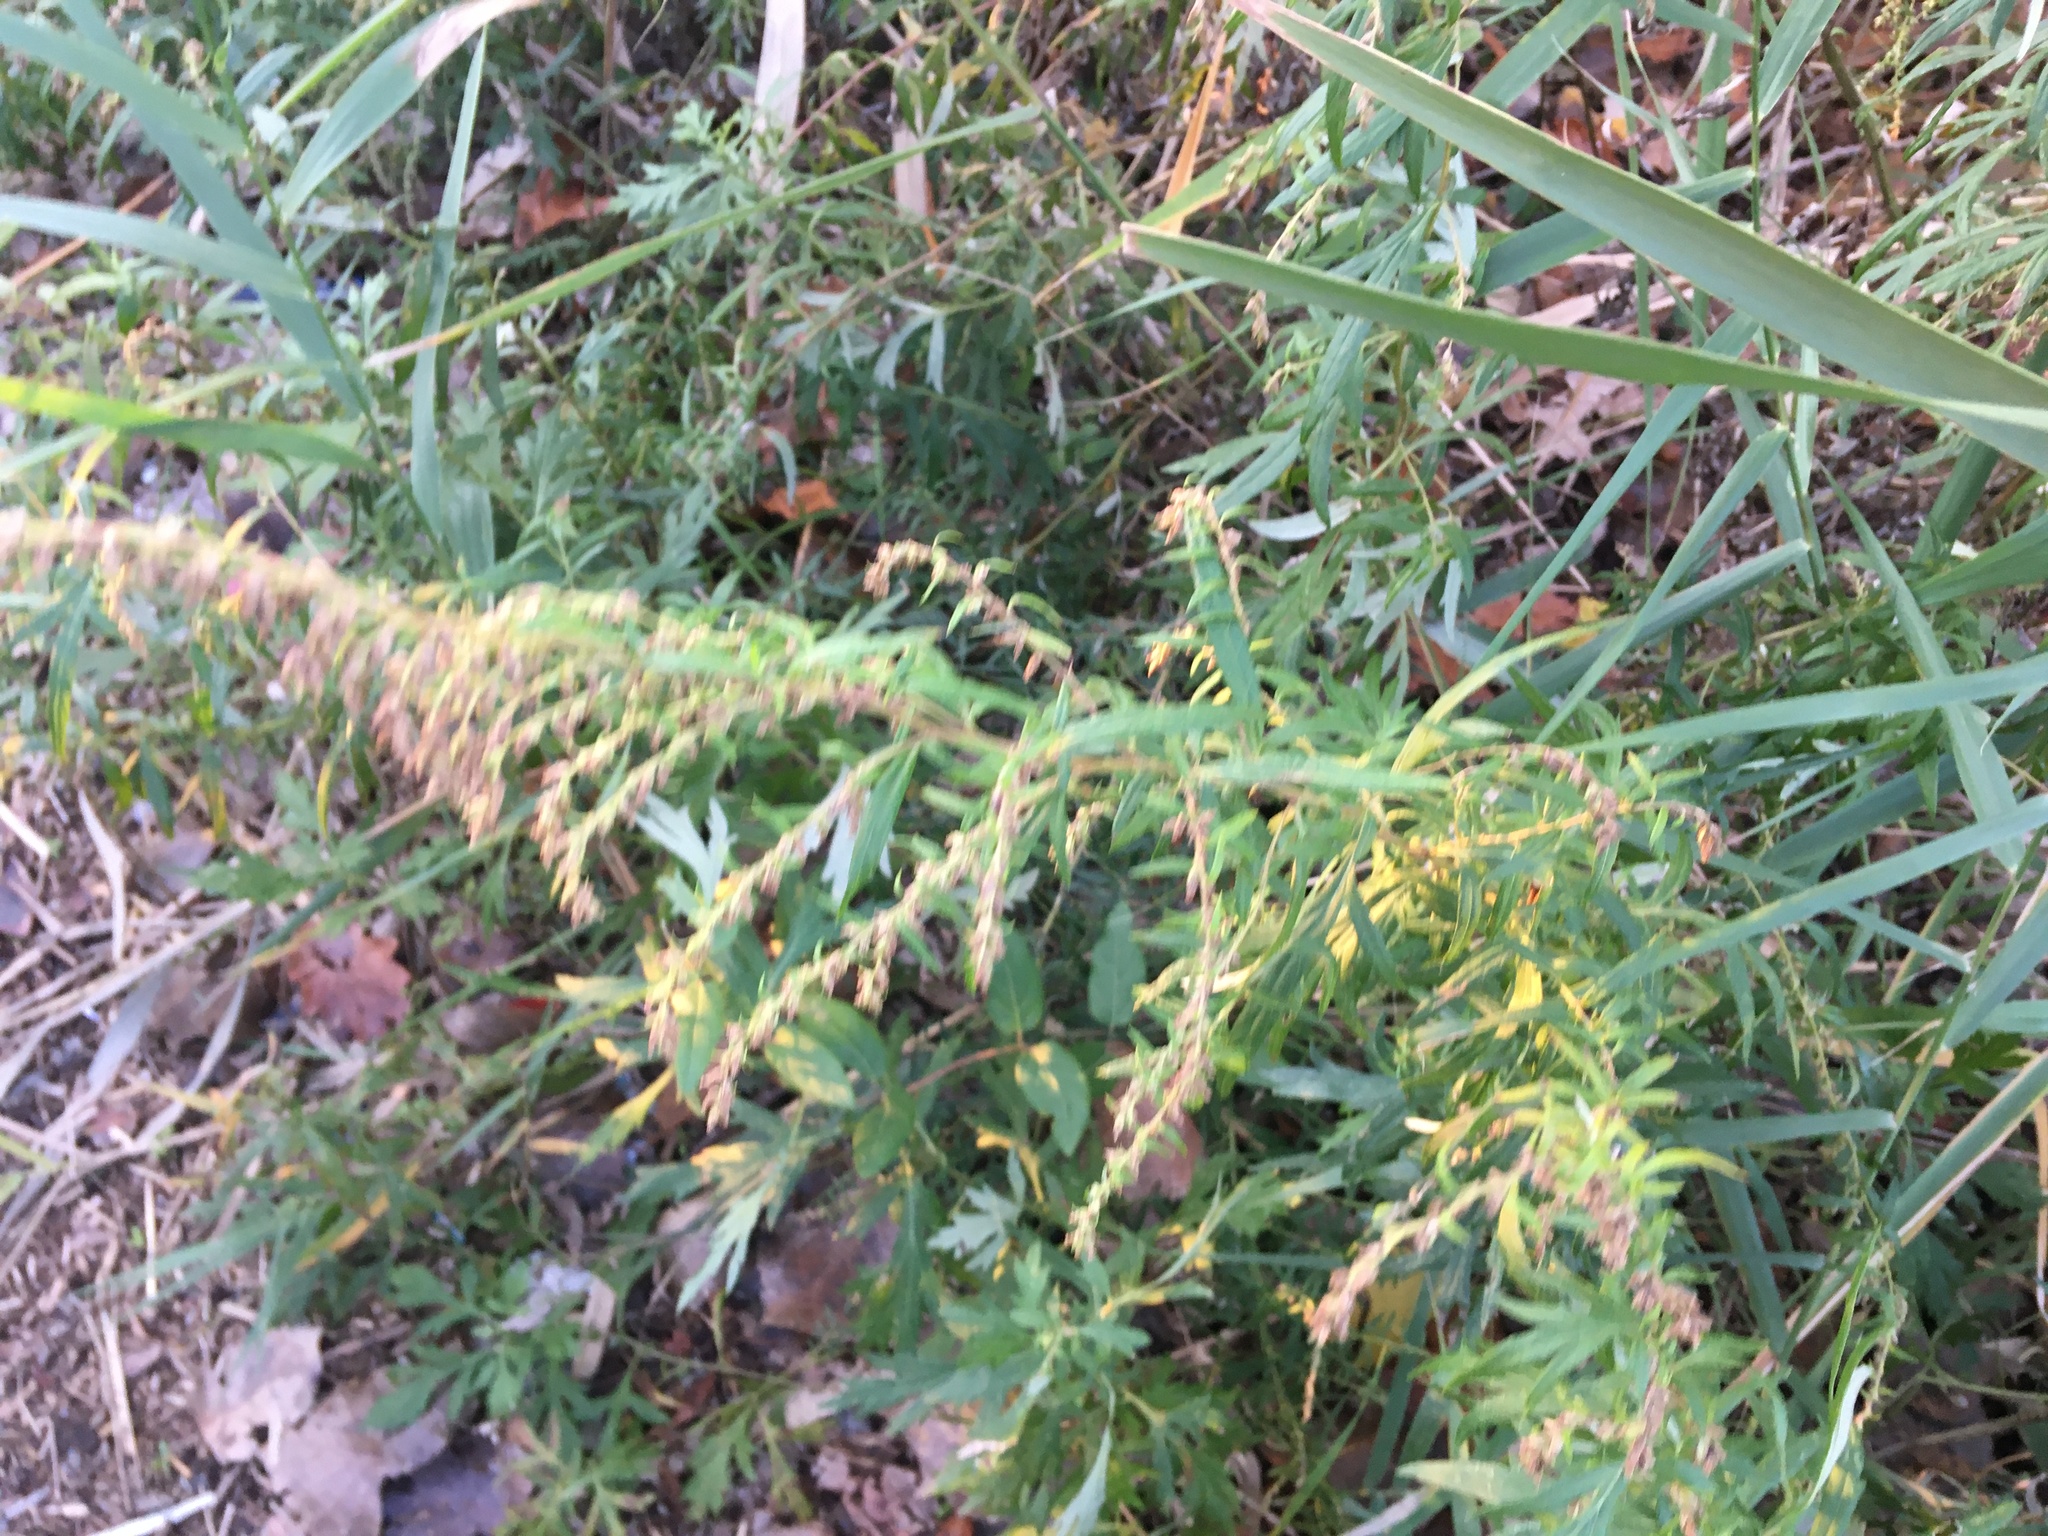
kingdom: Plantae
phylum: Tracheophyta
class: Magnoliopsida
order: Asterales
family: Asteraceae
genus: Artemisia
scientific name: Artemisia vulgaris
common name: Mugwort
